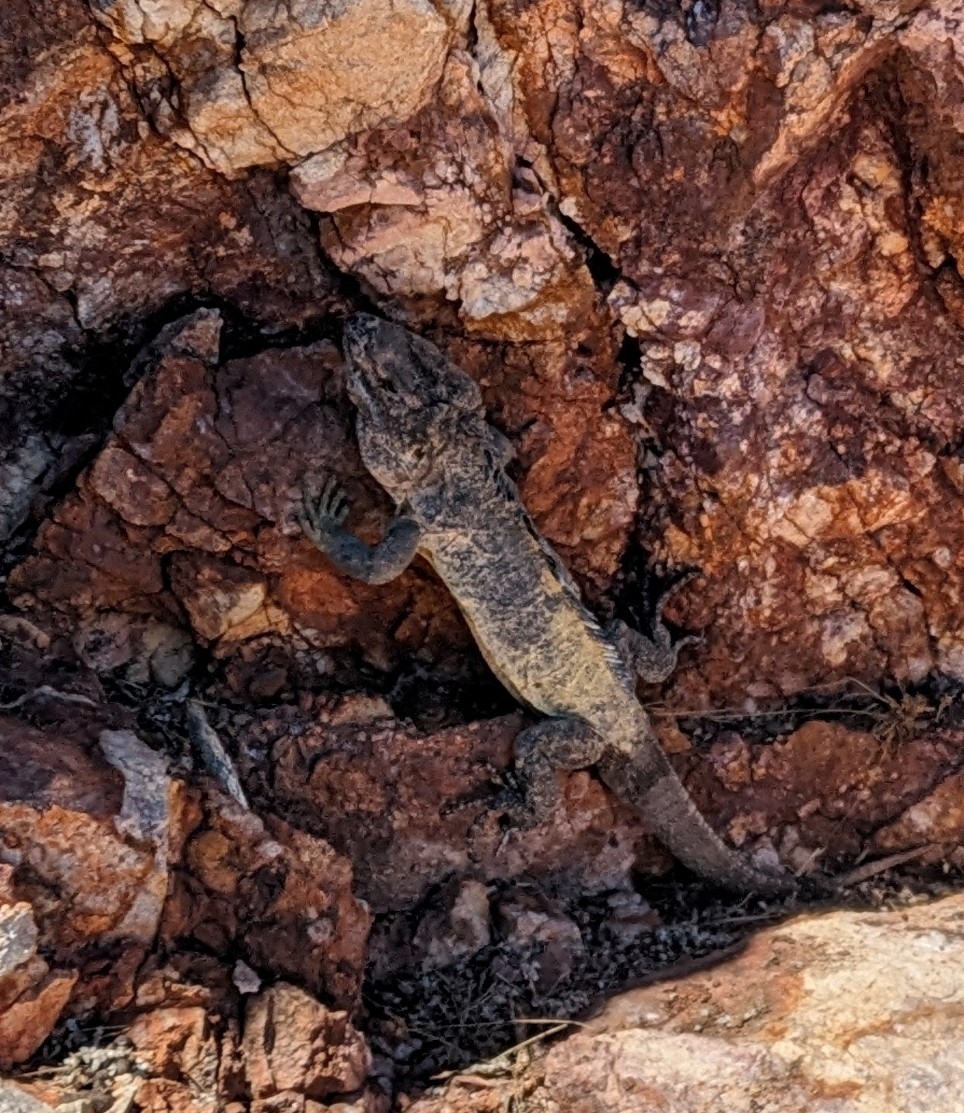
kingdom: Animalia
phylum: Chordata
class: Squamata
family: Iguanidae
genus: Ctenosaura
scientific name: Ctenosaura pectinata
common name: Guerreran spiny-tailed iguana
